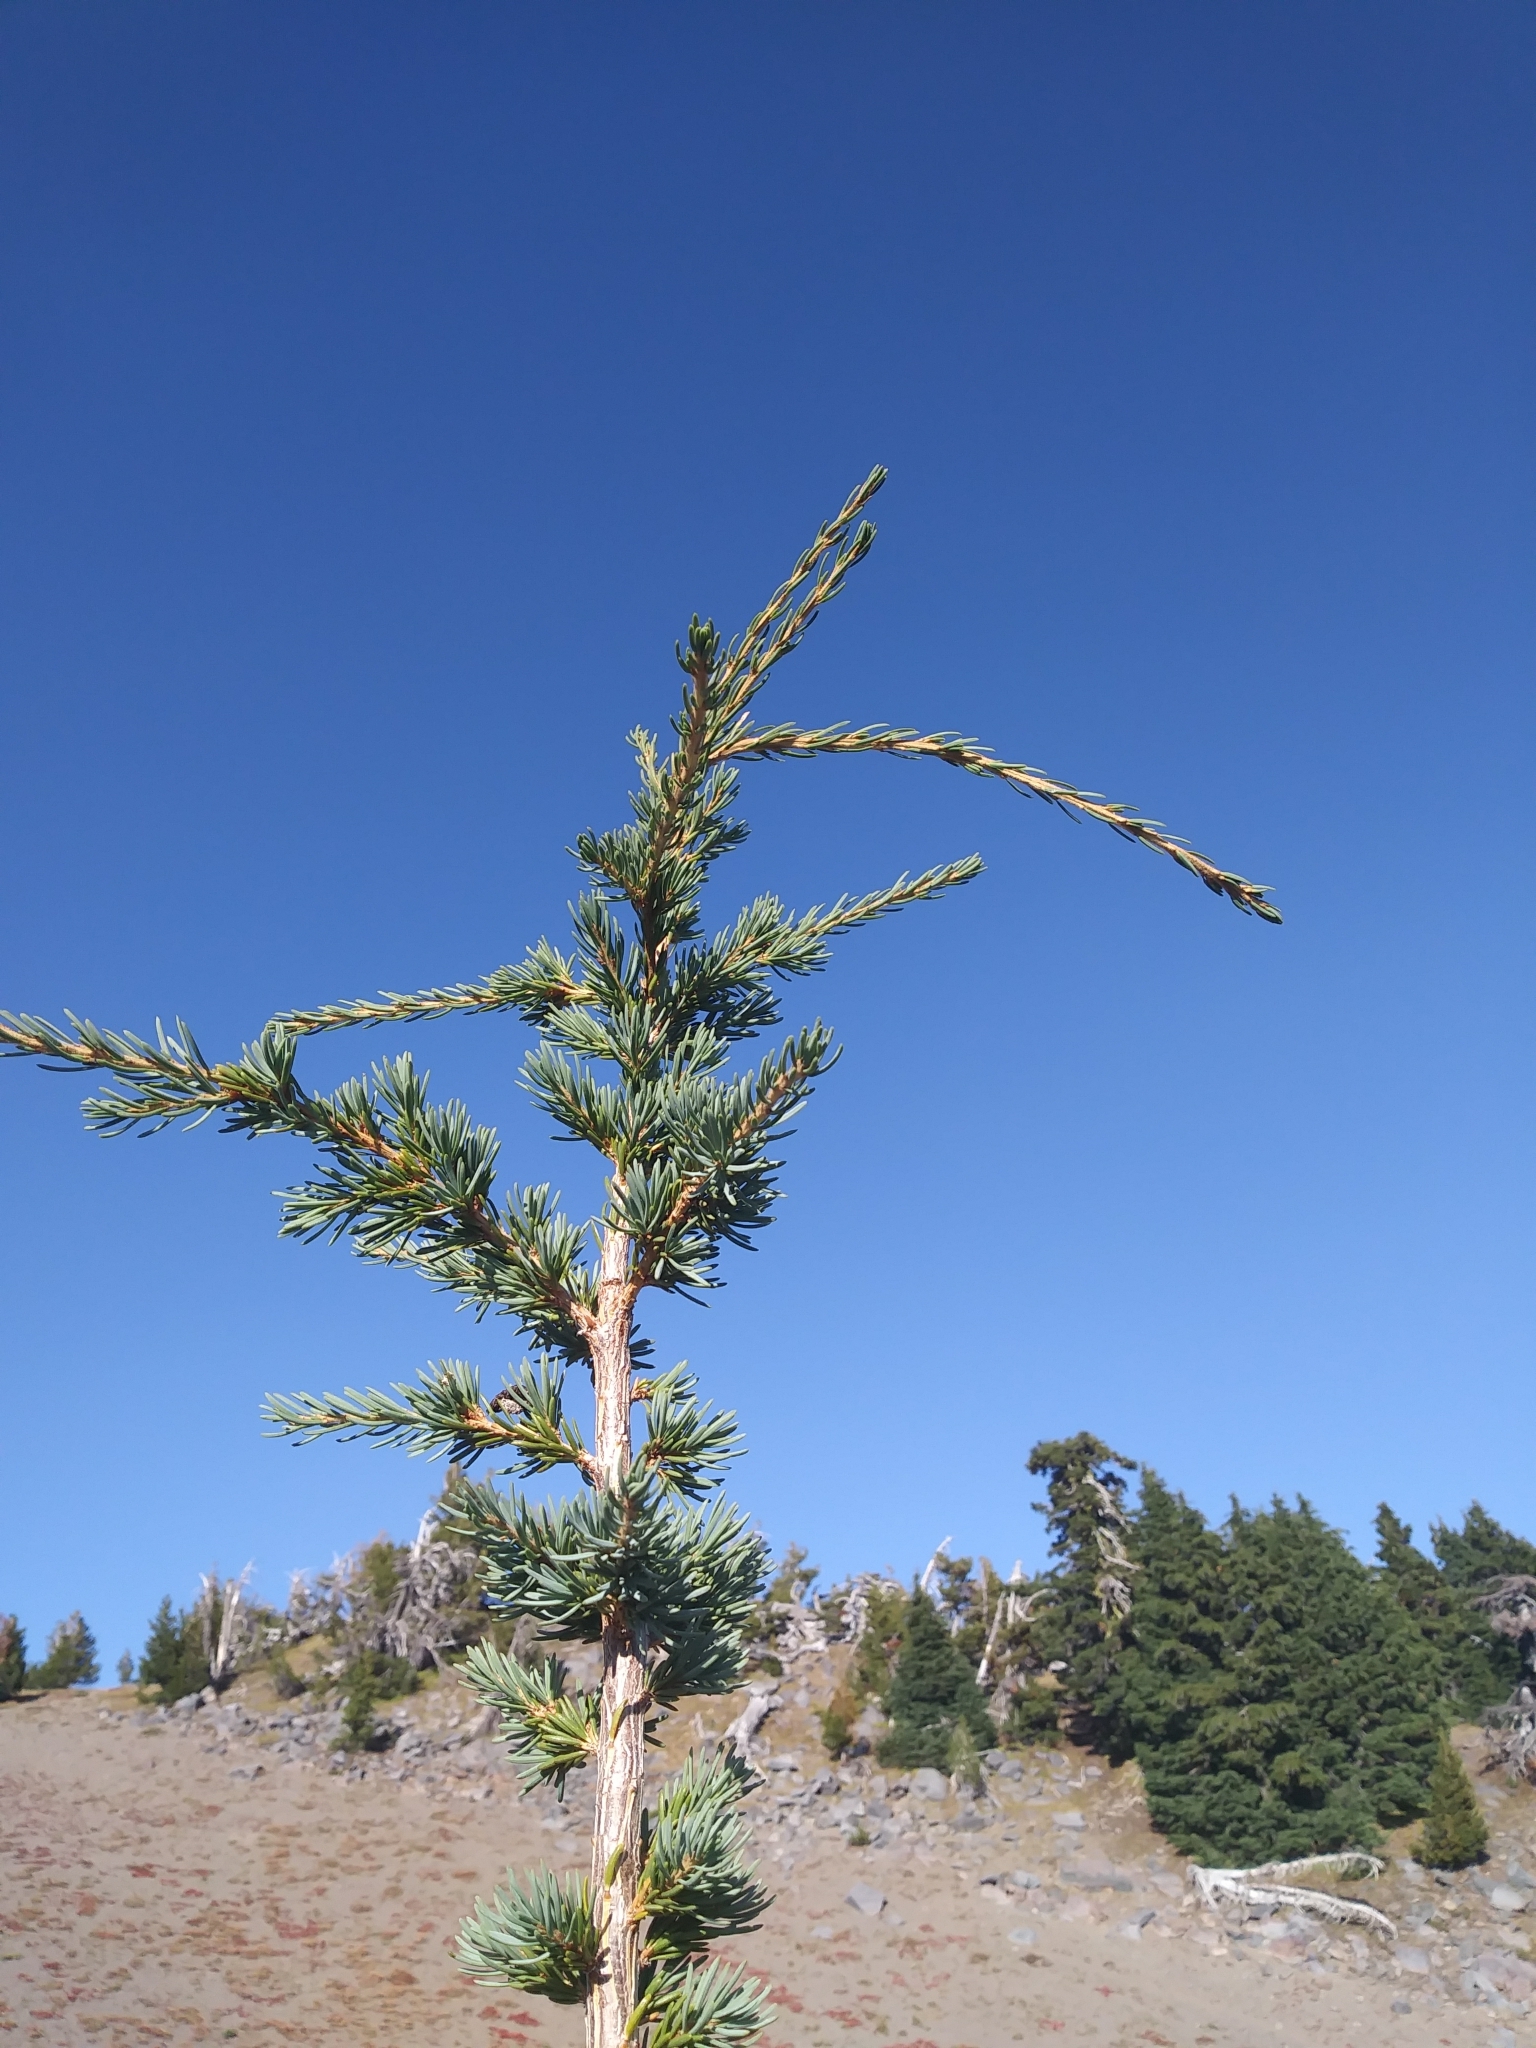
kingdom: Plantae
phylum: Tracheophyta
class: Pinopsida
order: Pinales
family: Pinaceae
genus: Tsuga
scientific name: Tsuga mertensiana
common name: Mountain hemlock
